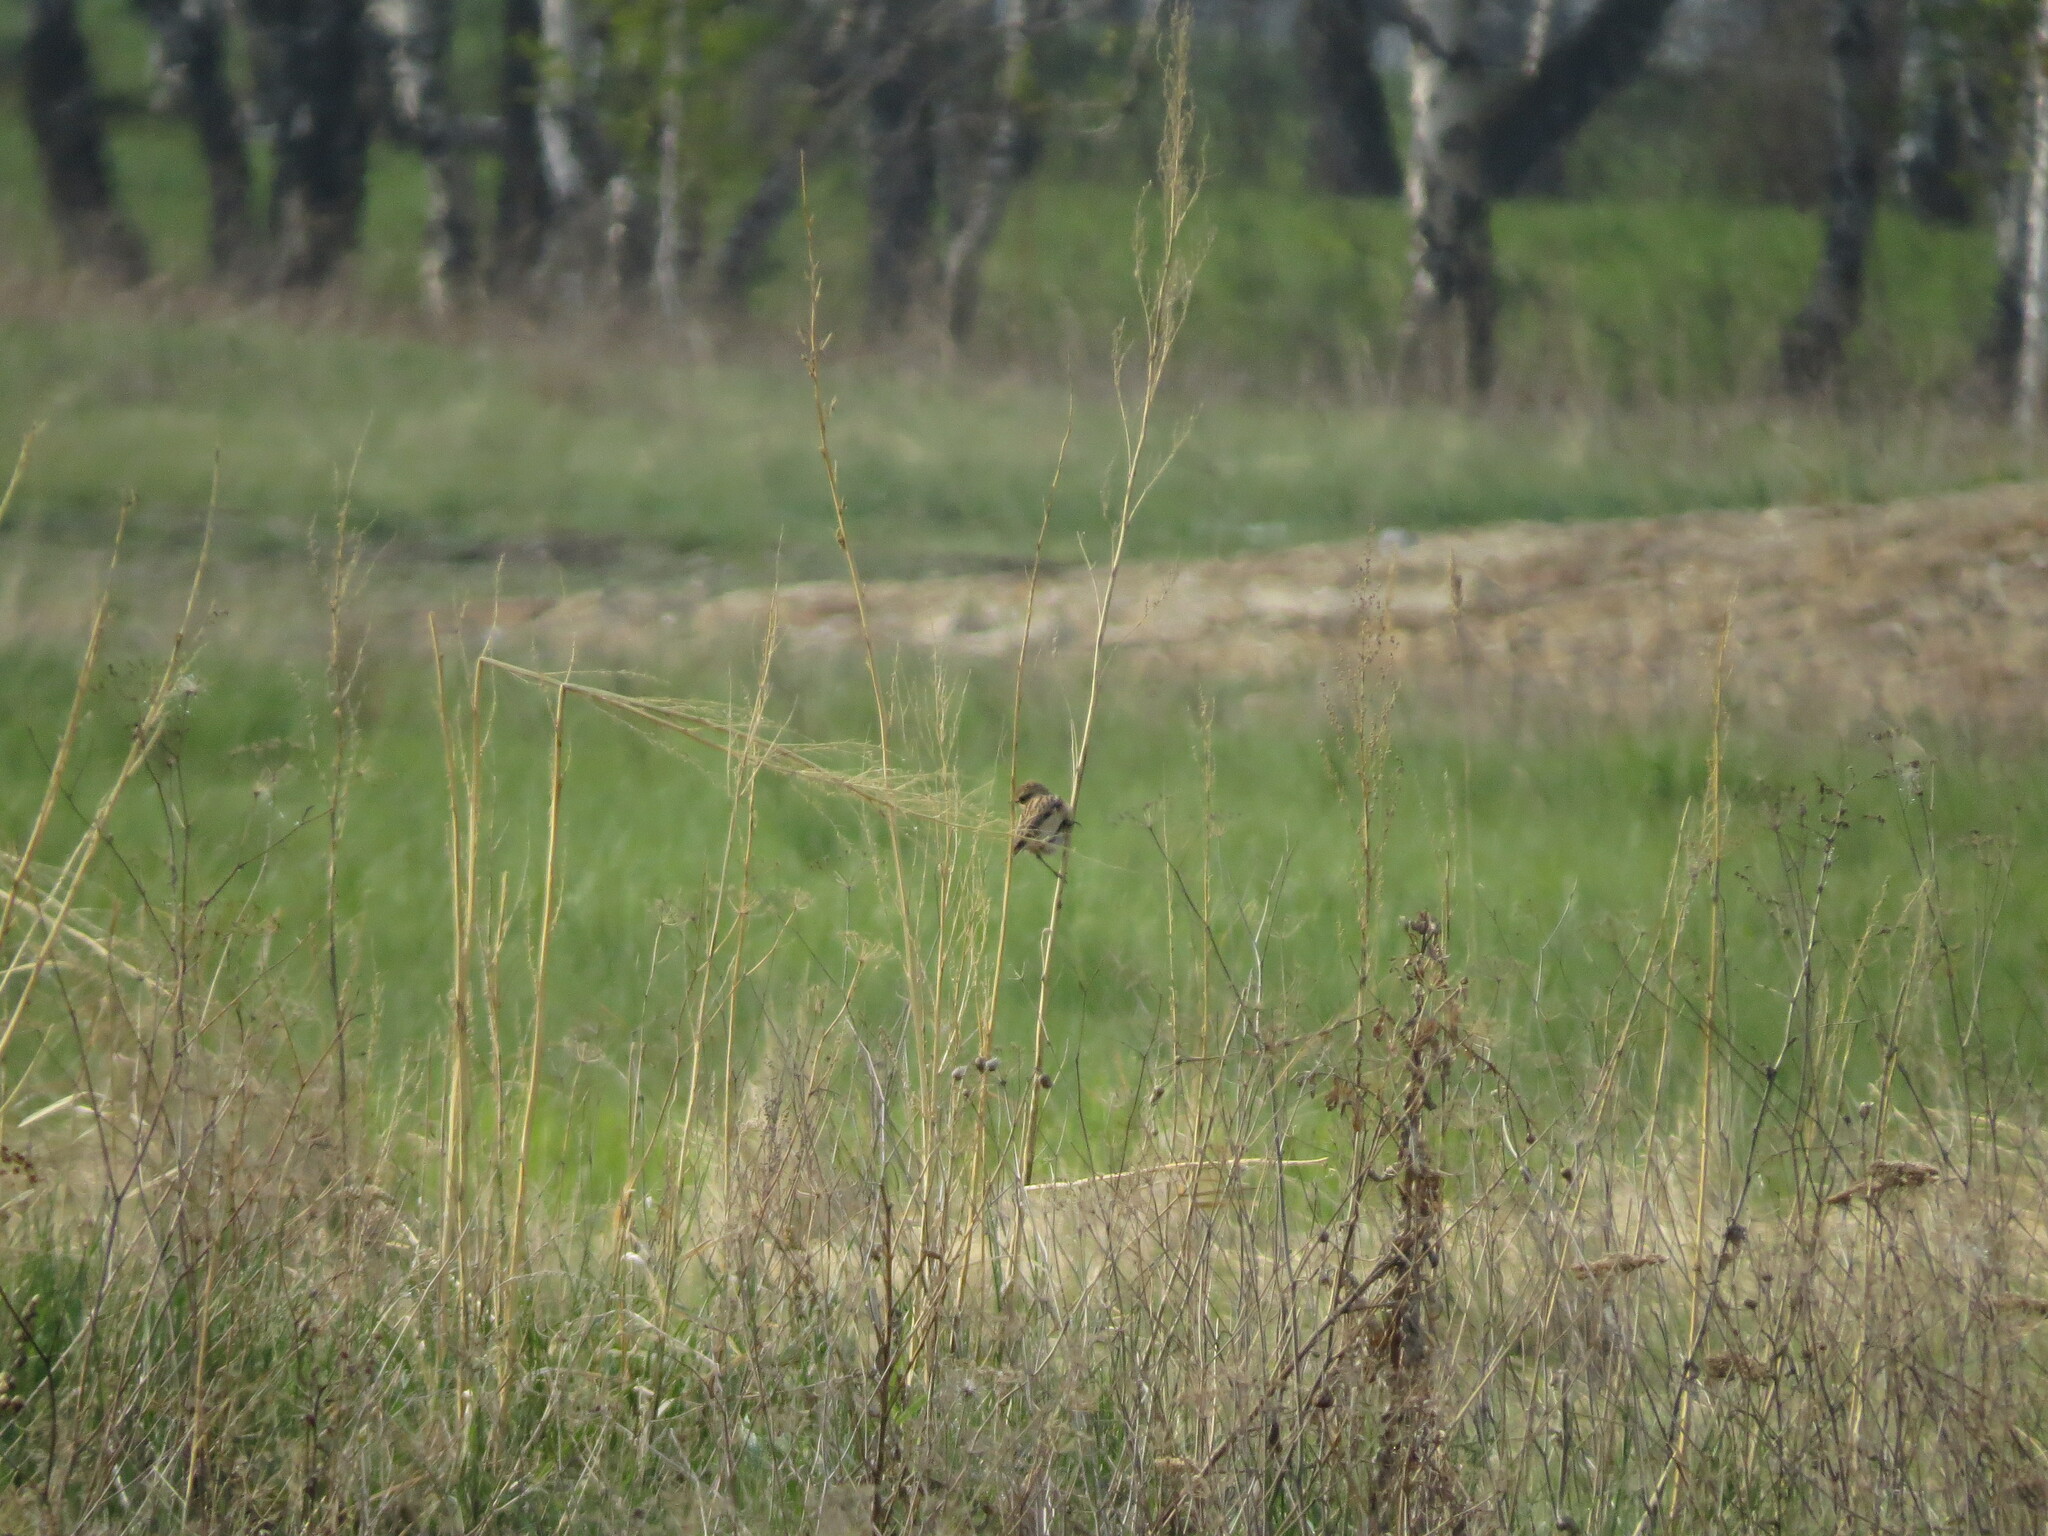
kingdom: Animalia
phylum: Chordata
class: Aves
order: Passeriformes
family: Muscicapidae
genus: Saxicola
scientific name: Saxicola maurus
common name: Siberian stonechat
